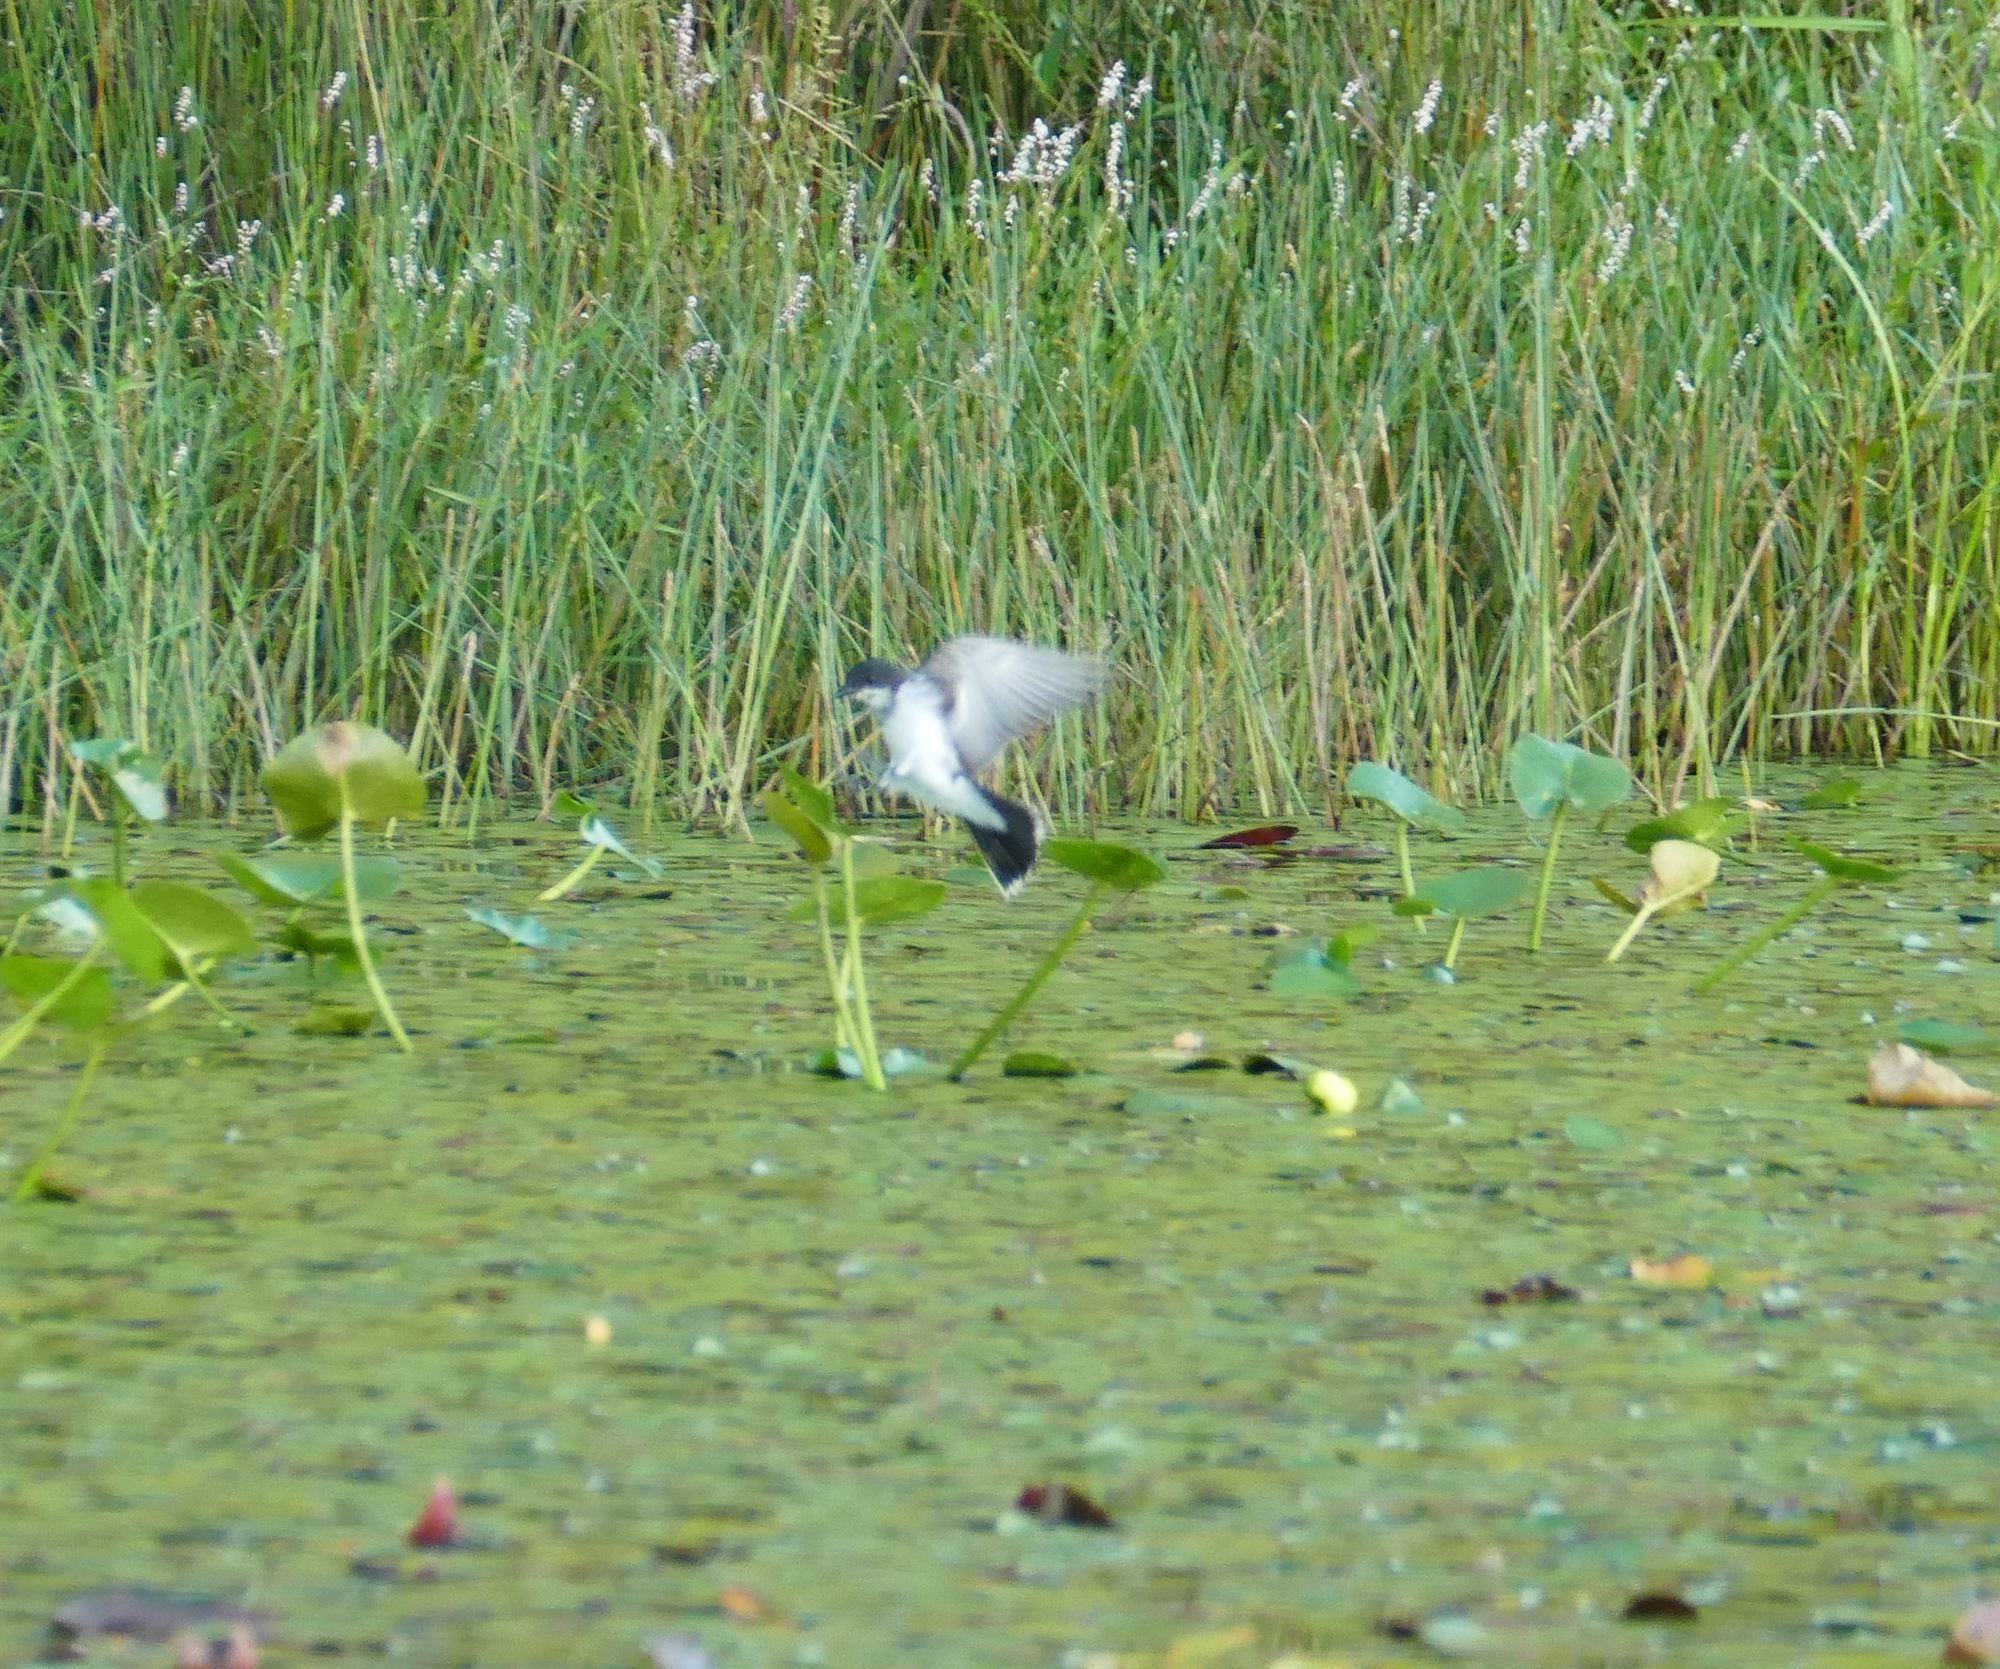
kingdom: Animalia
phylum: Chordata
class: Aves
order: Passeriformes
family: Tyrannidae
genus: Tyrannus
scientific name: Tyrannus tyrannus
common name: Eastern kingbird
